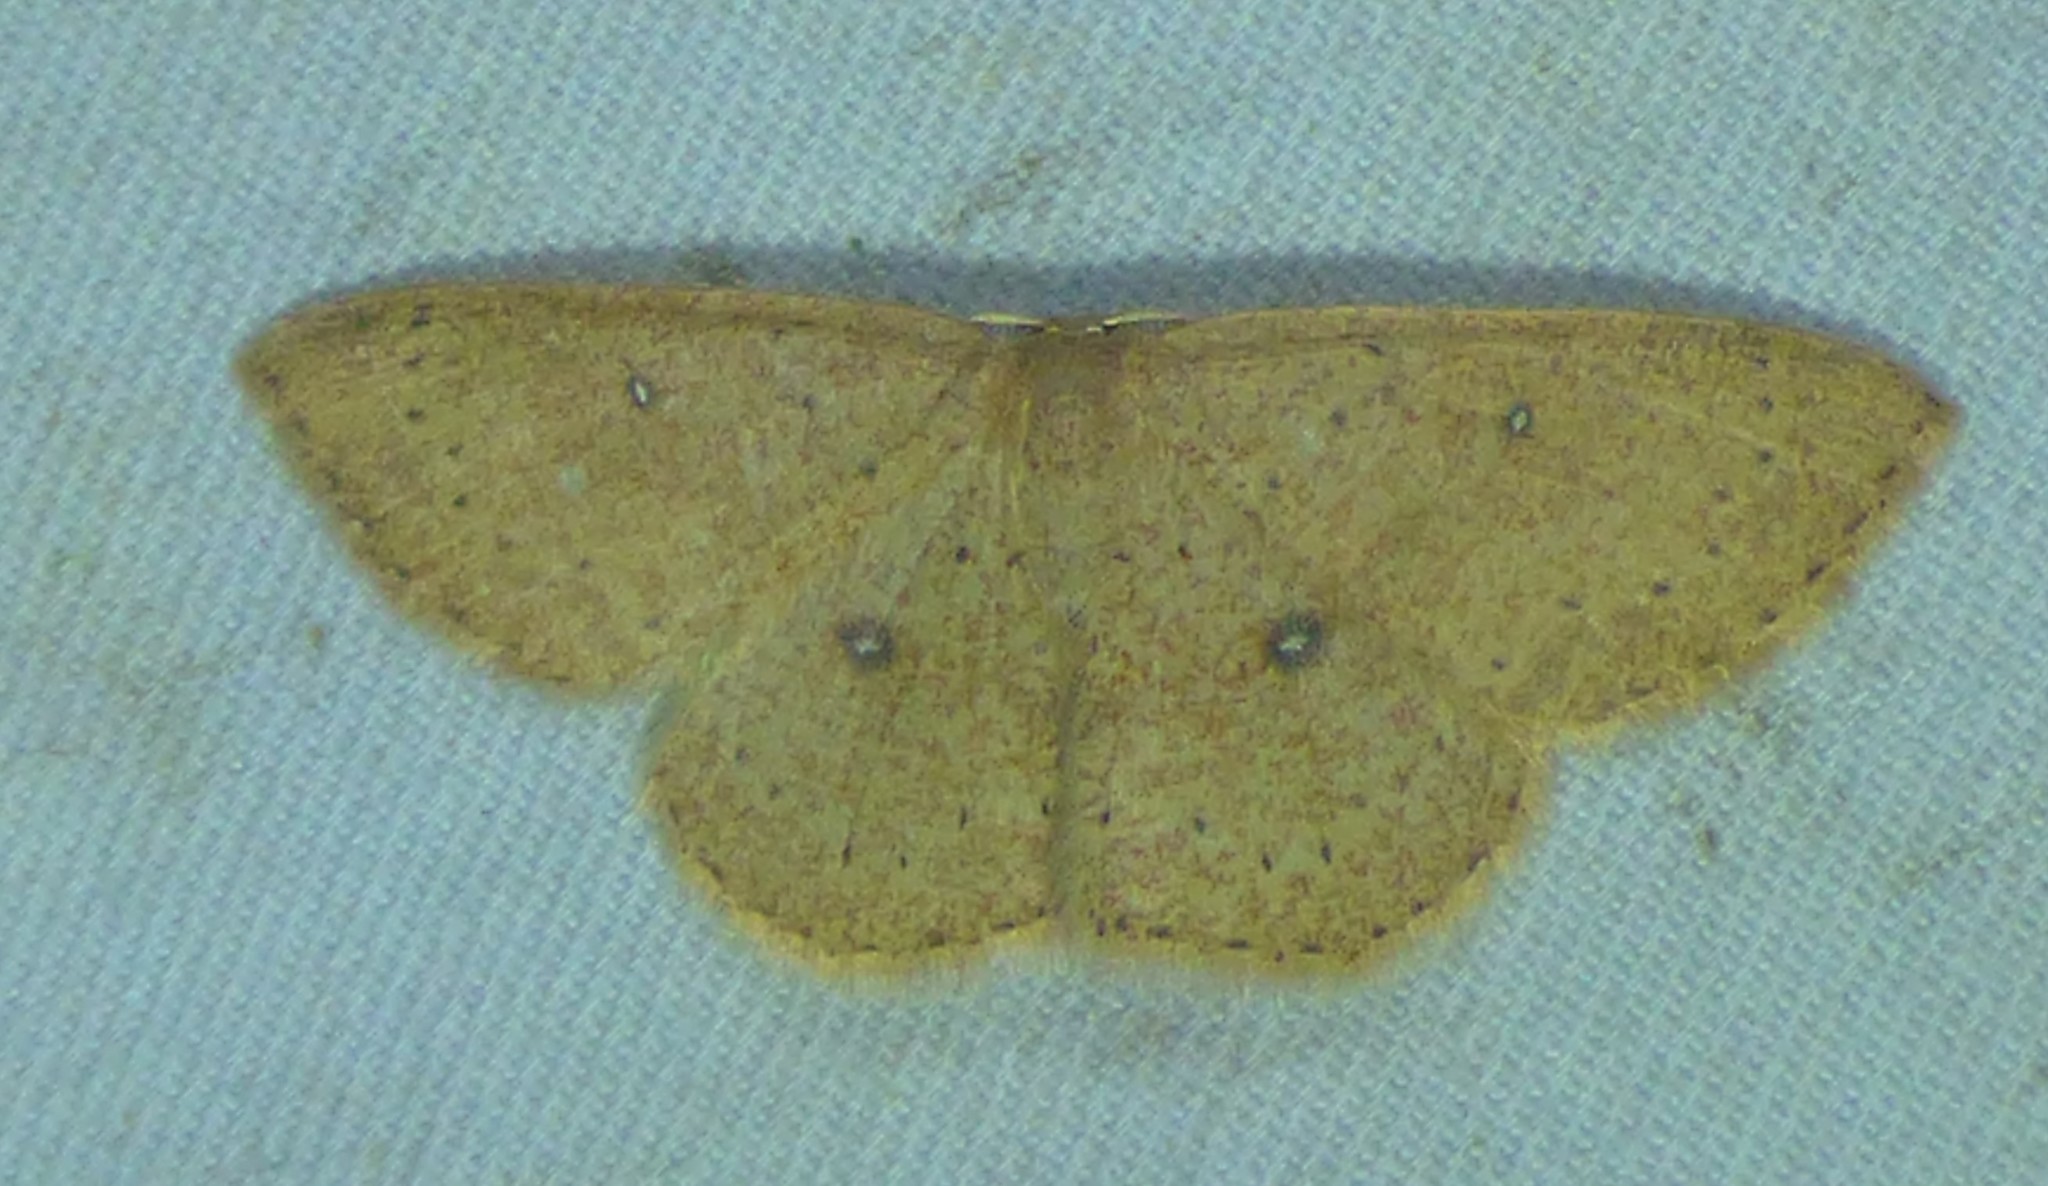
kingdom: Animalia
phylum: Arthropoda
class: Insecta
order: Lepidoptera
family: Geometridae
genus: Cyclophora
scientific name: Cyclophora packardi
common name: Packard's wave
